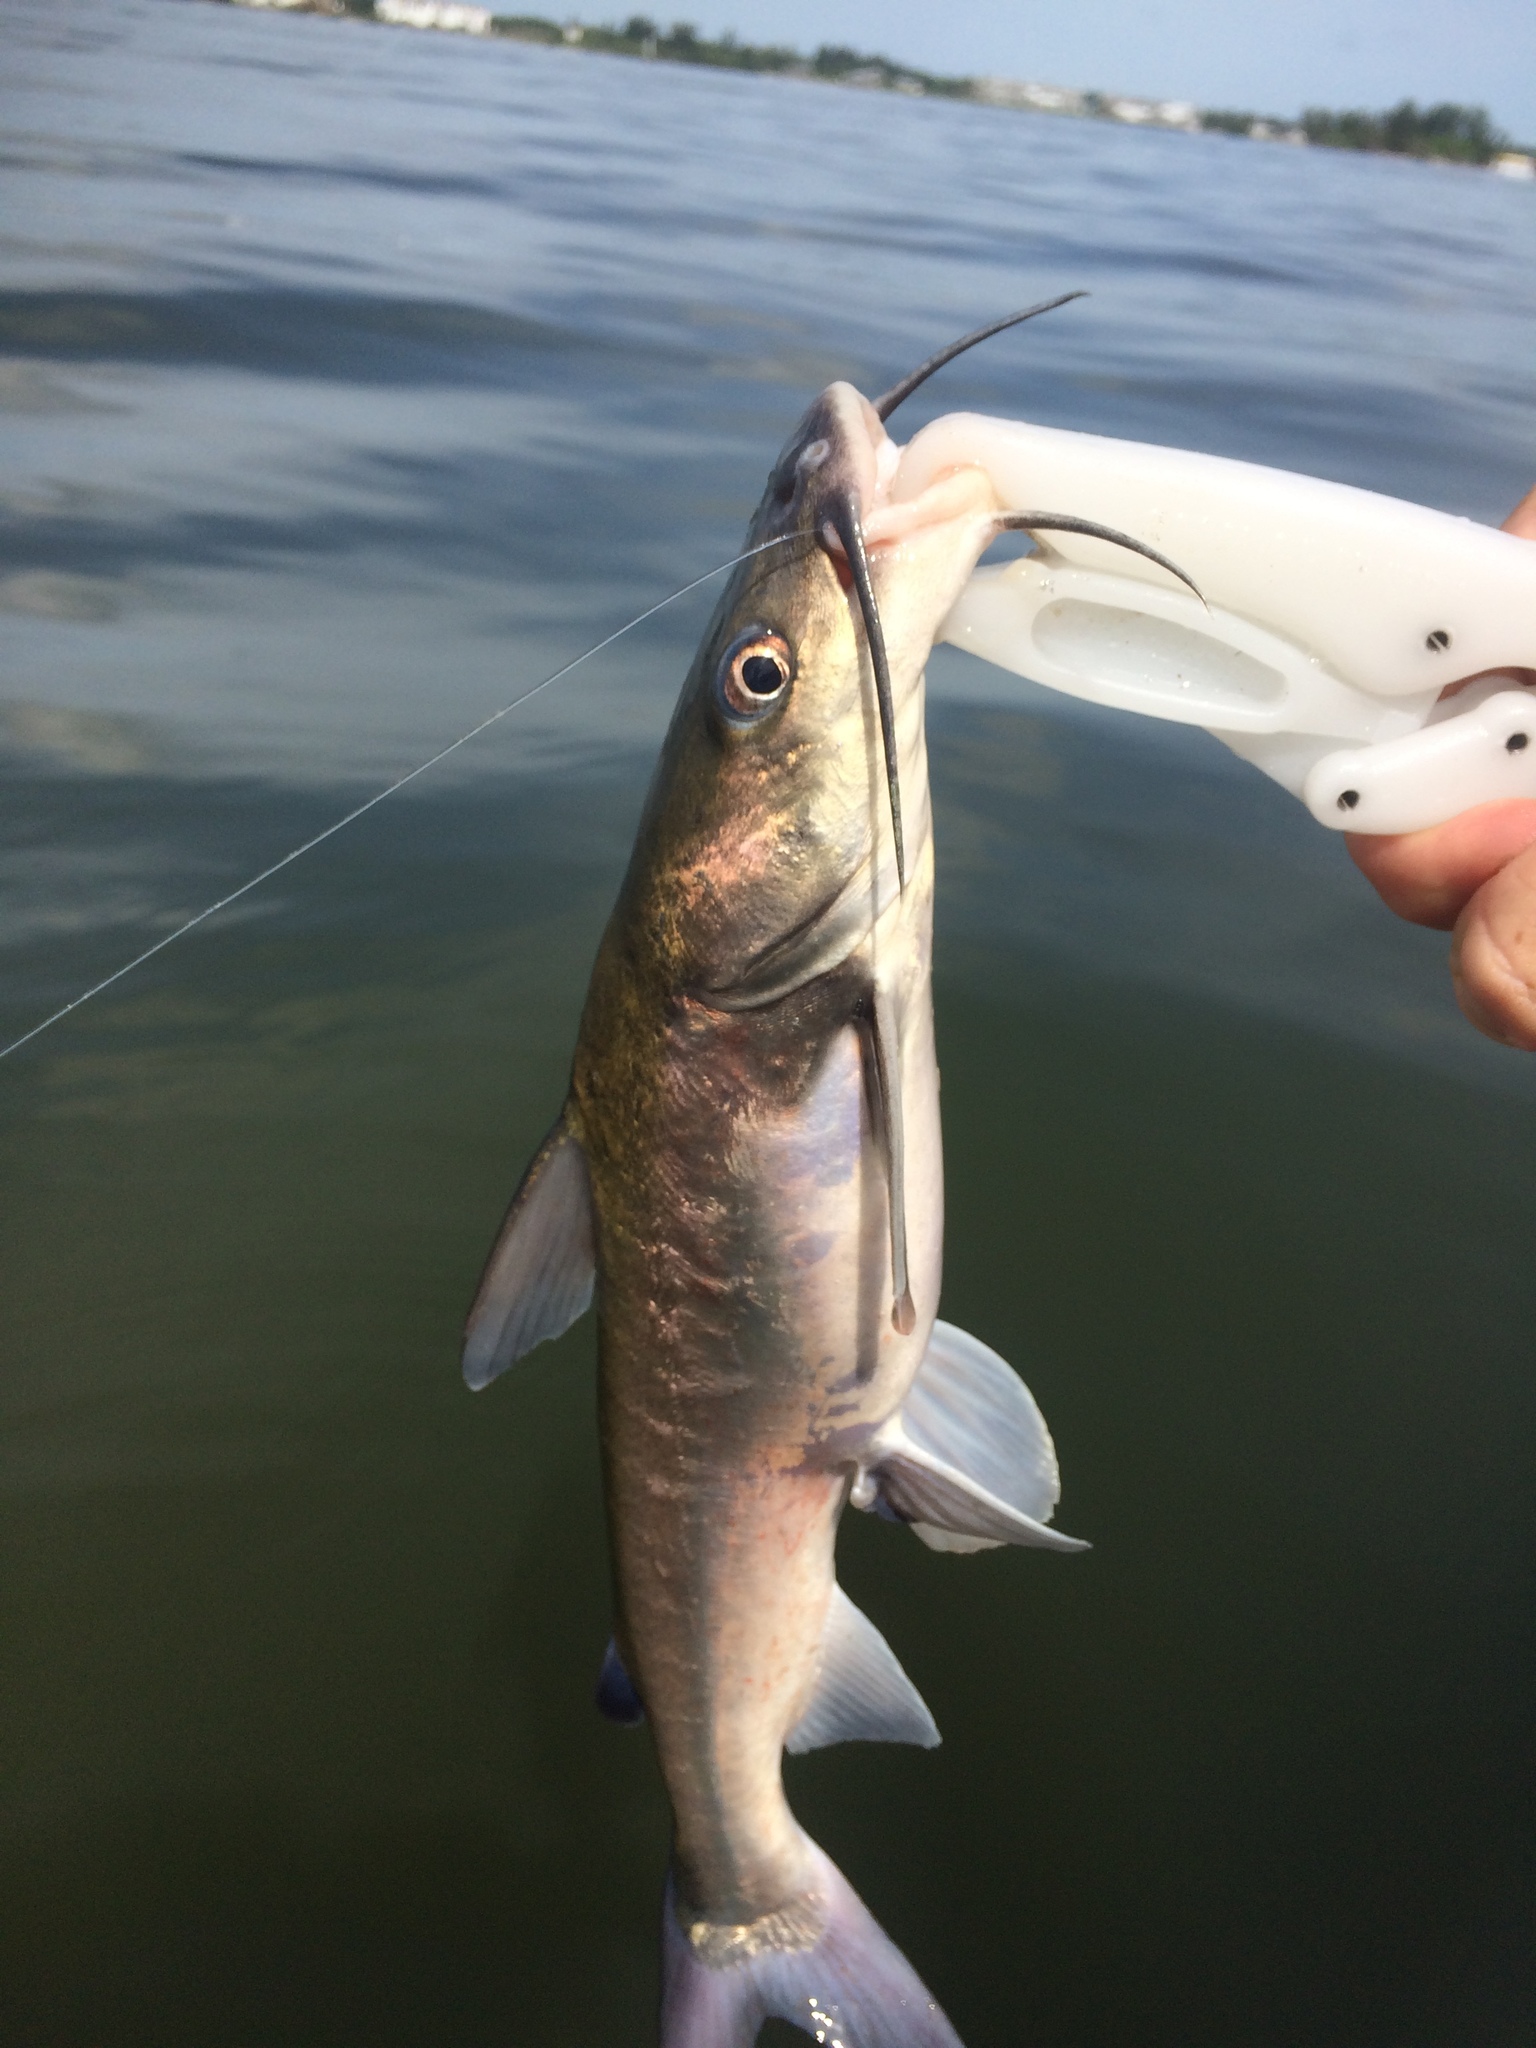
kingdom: Animalia
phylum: Chordata
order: Siluriformes
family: Ariidae
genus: Ariopsis
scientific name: Ariopsis felis
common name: Hardhead catfish
